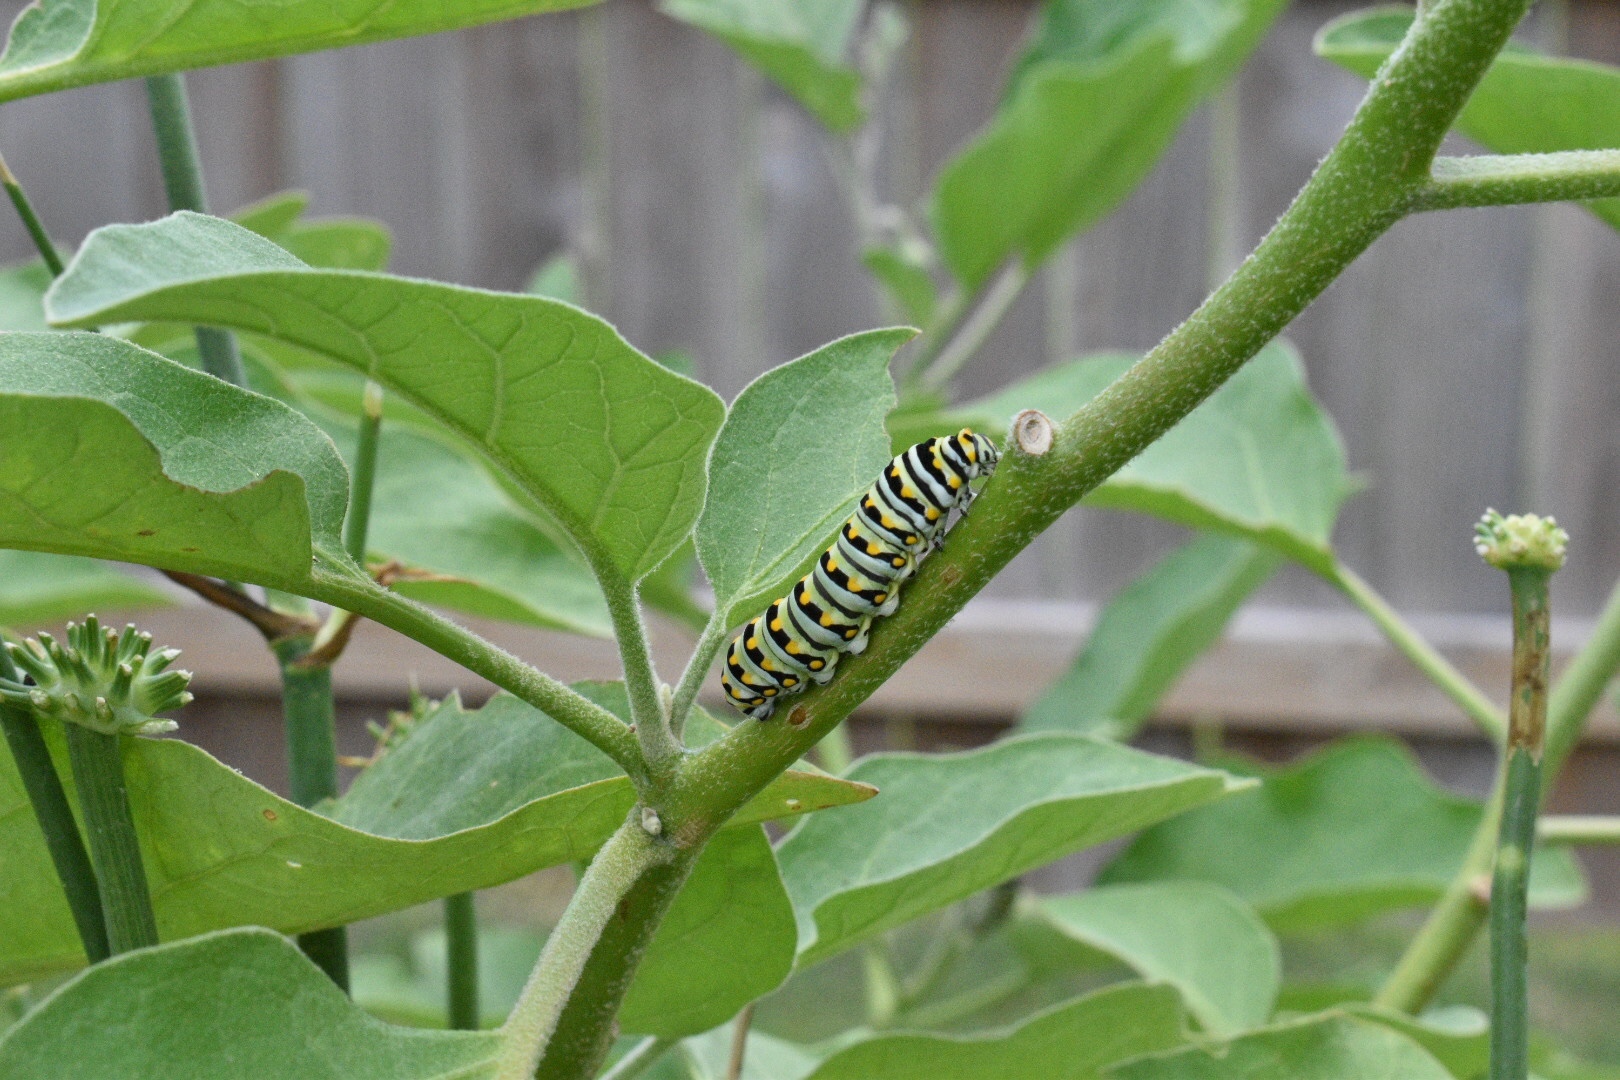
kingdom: Animalia
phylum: Arthropoda
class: Insecta
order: Lepidoptera
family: Papilionidae
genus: Papilio
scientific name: Papilio polyxenes
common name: Black swallowtail
